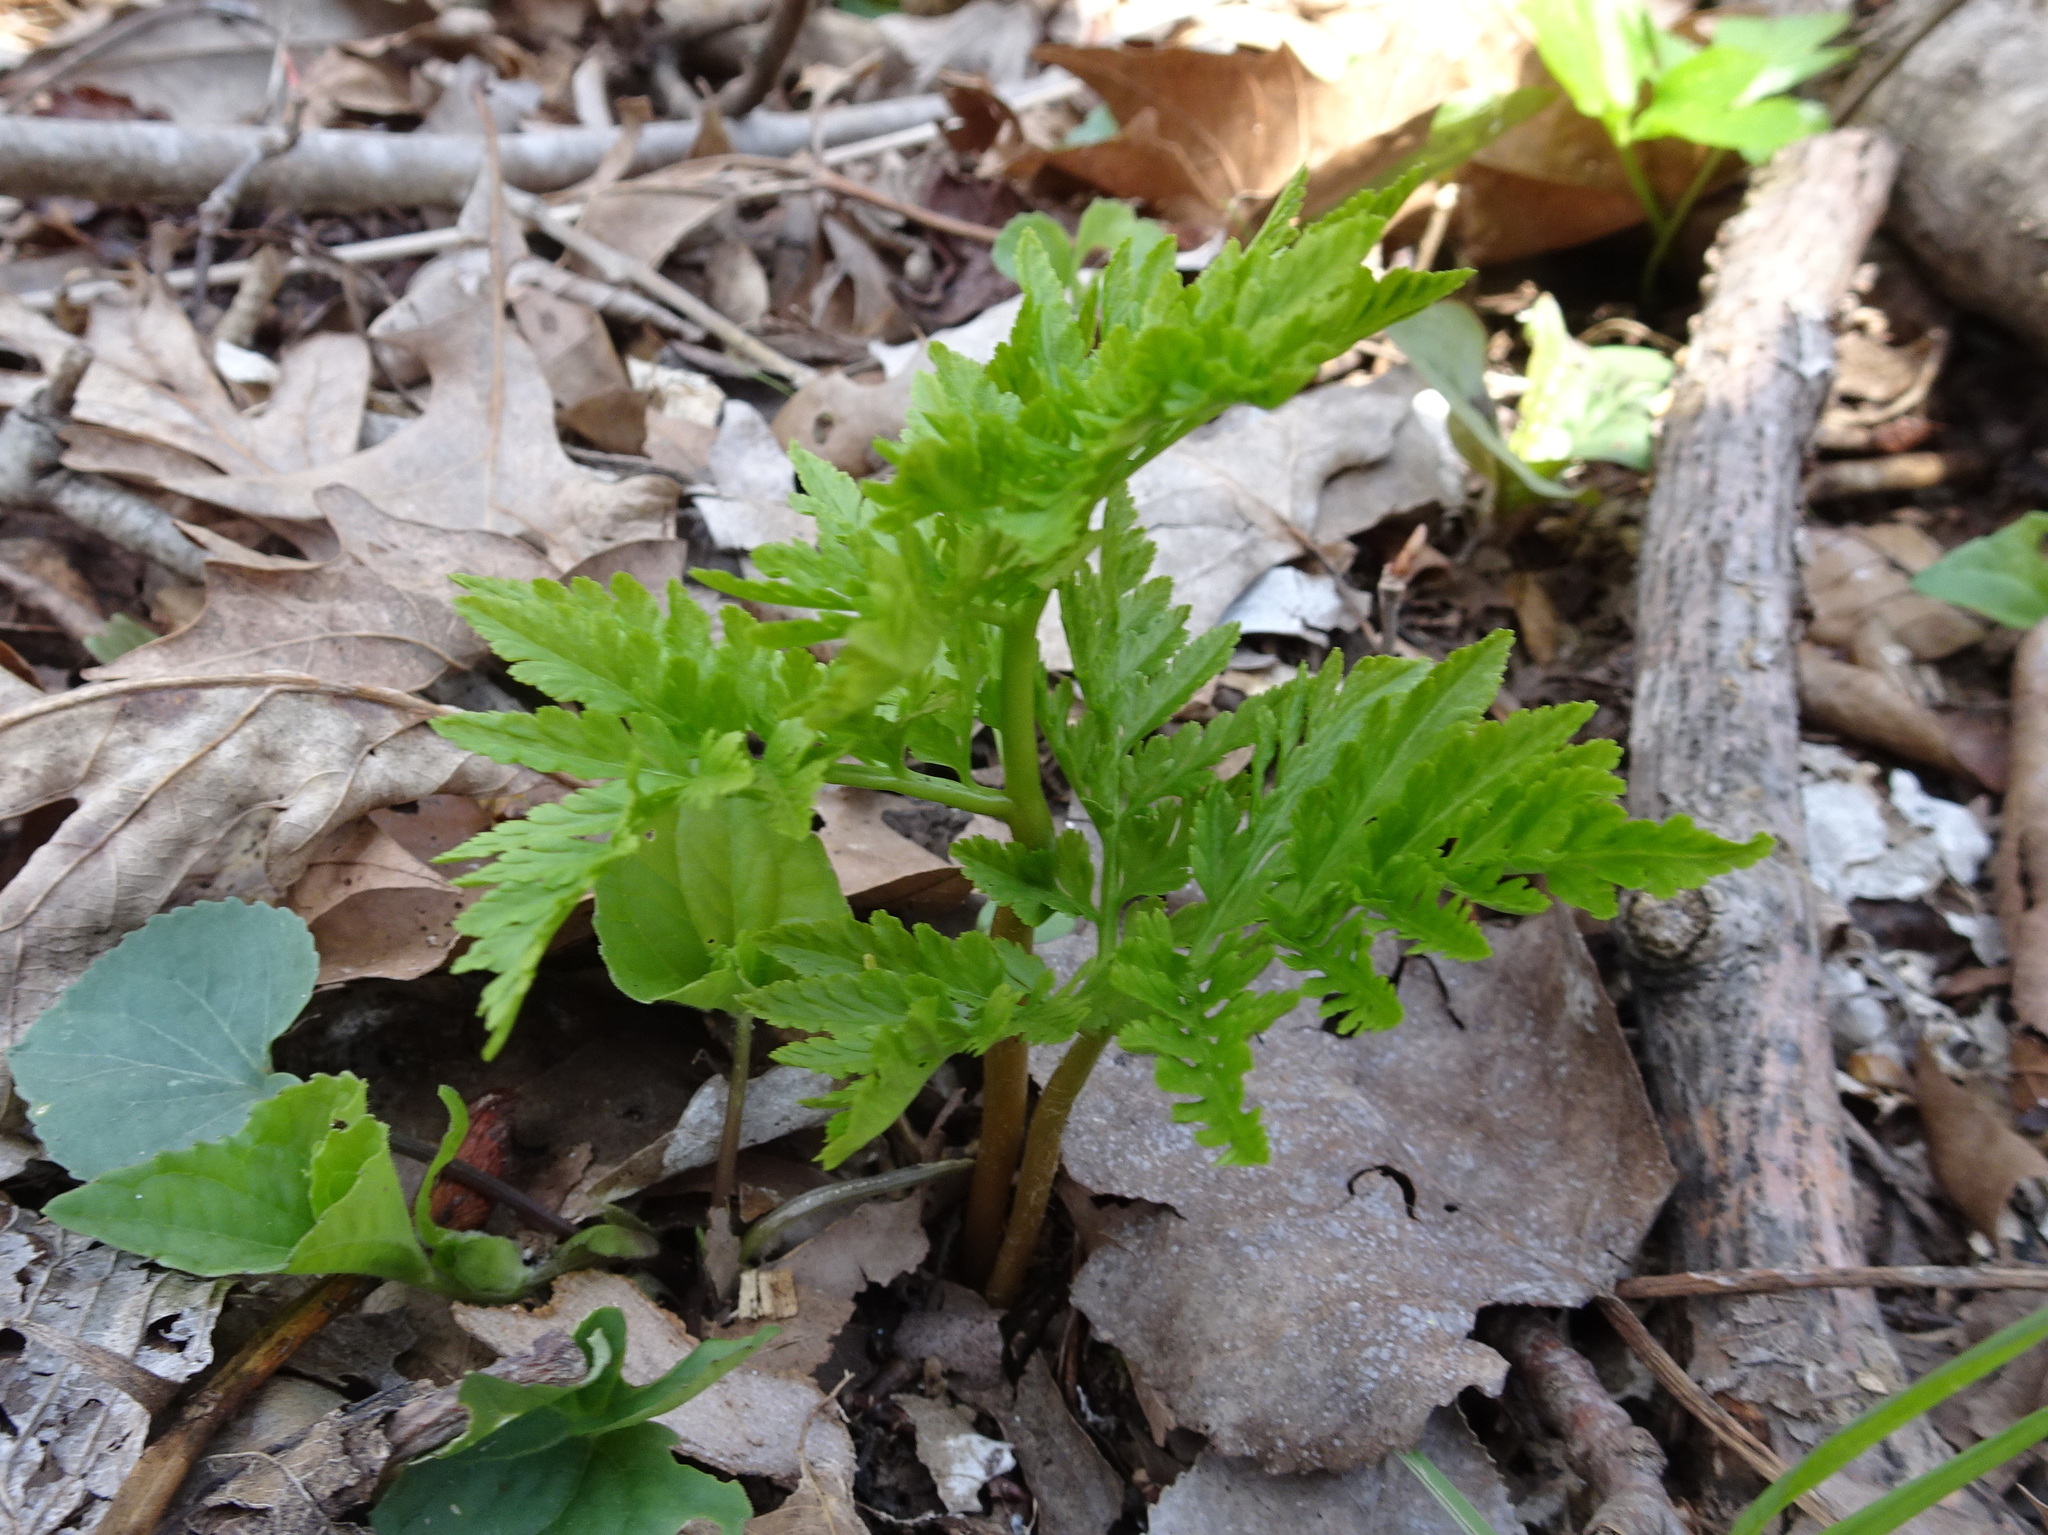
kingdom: Plantae
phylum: Tracheophyta
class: Polypodiopsida
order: Ophioglossales
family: Ophioglossaceae
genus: Botrypus
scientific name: Botrypus virginianus
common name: Common grapefern
